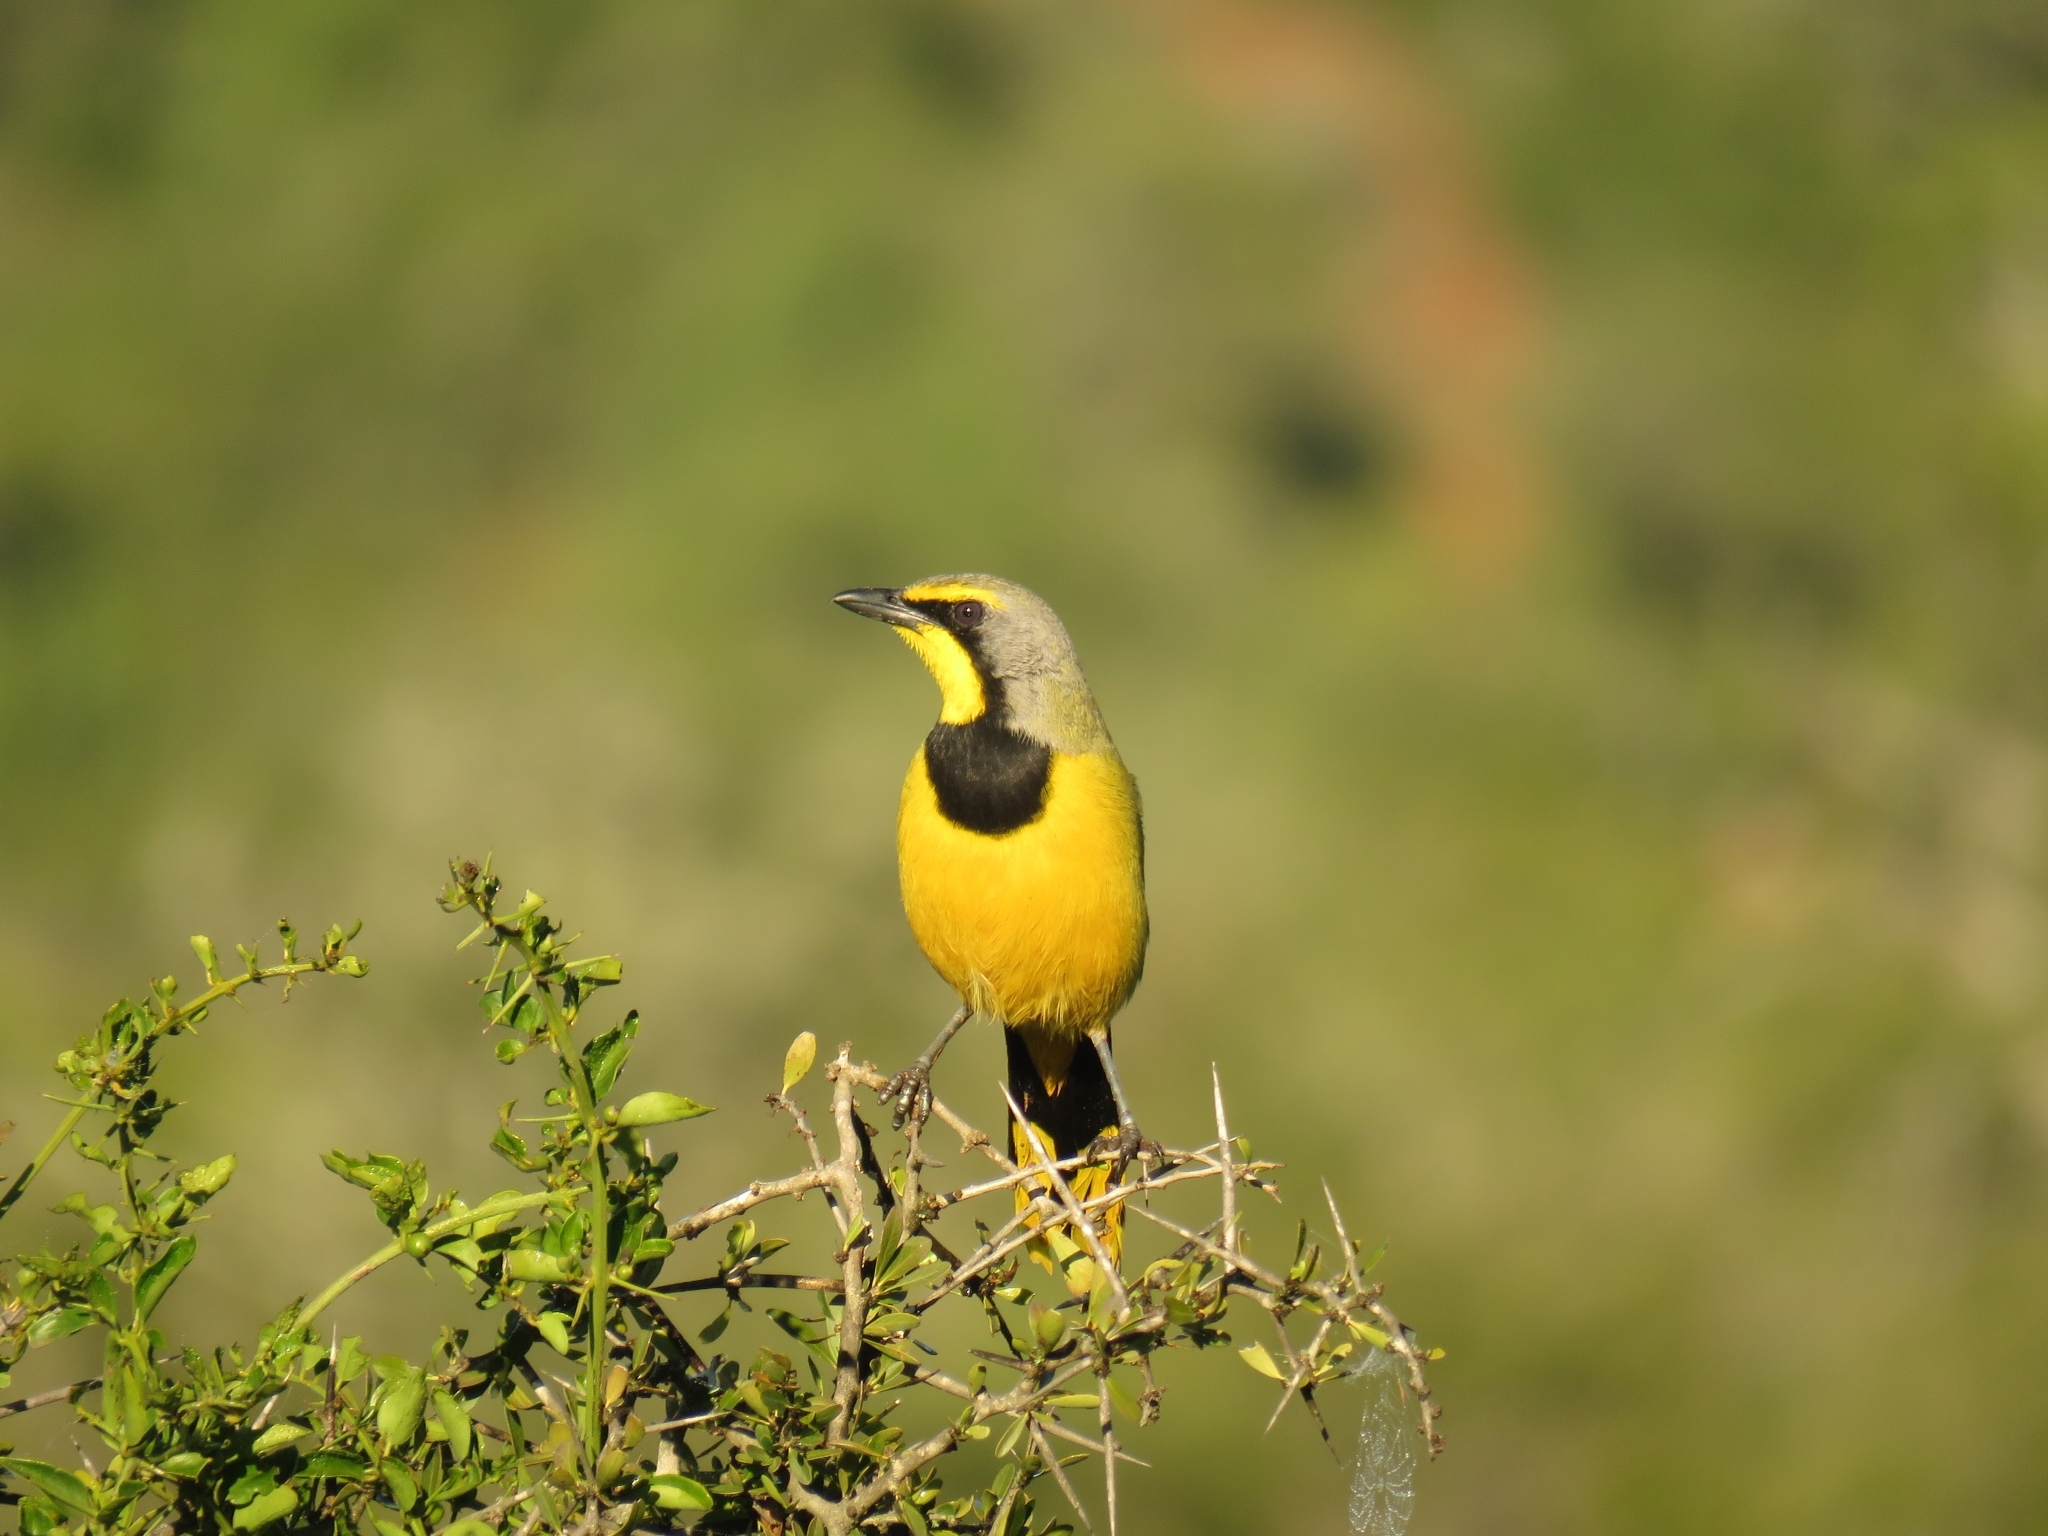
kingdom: Animalia
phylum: Chordata
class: Aves
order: Passeriformes
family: Malaconotidae
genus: Telophorus
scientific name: Telophorus zeylonus
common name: Bokmakierie
